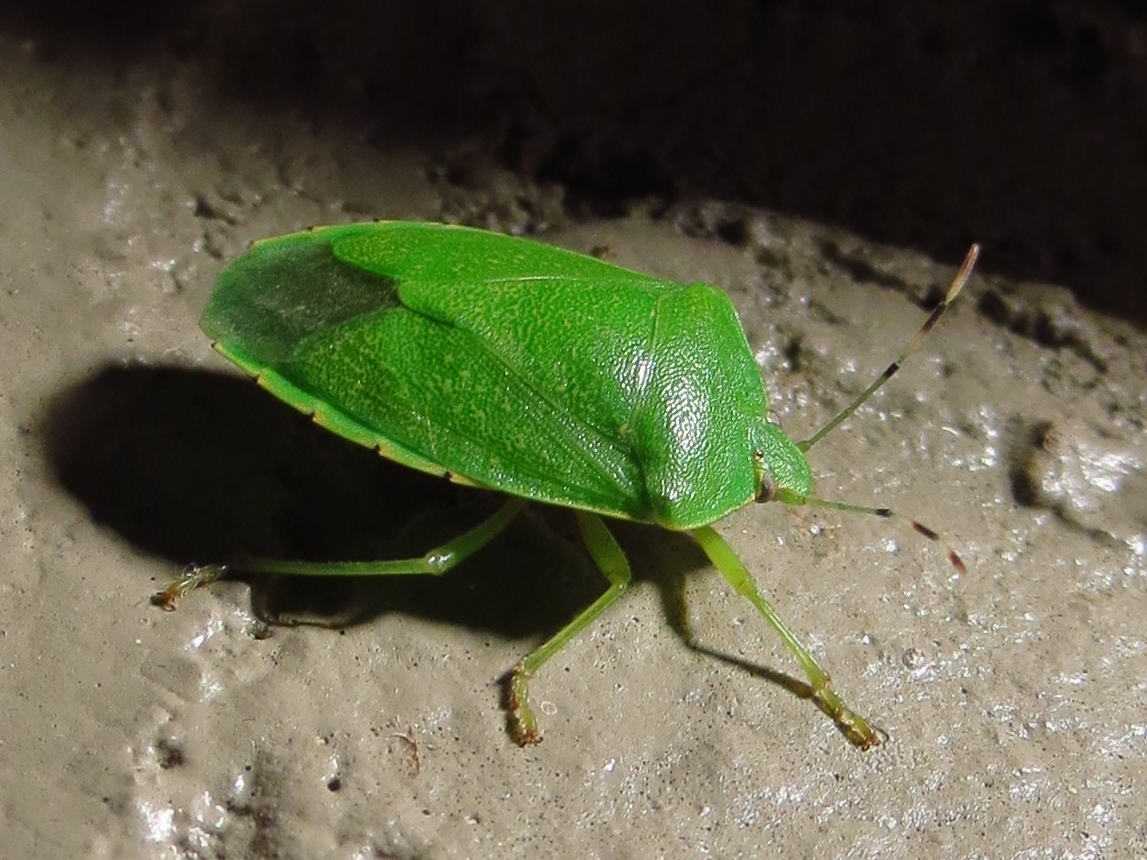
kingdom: Animalia
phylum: Arthropoda
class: Insecta
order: Hemiptera
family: Pentatomidae
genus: Chinavia
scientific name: Chinavia hilaris
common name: Green stink bug
